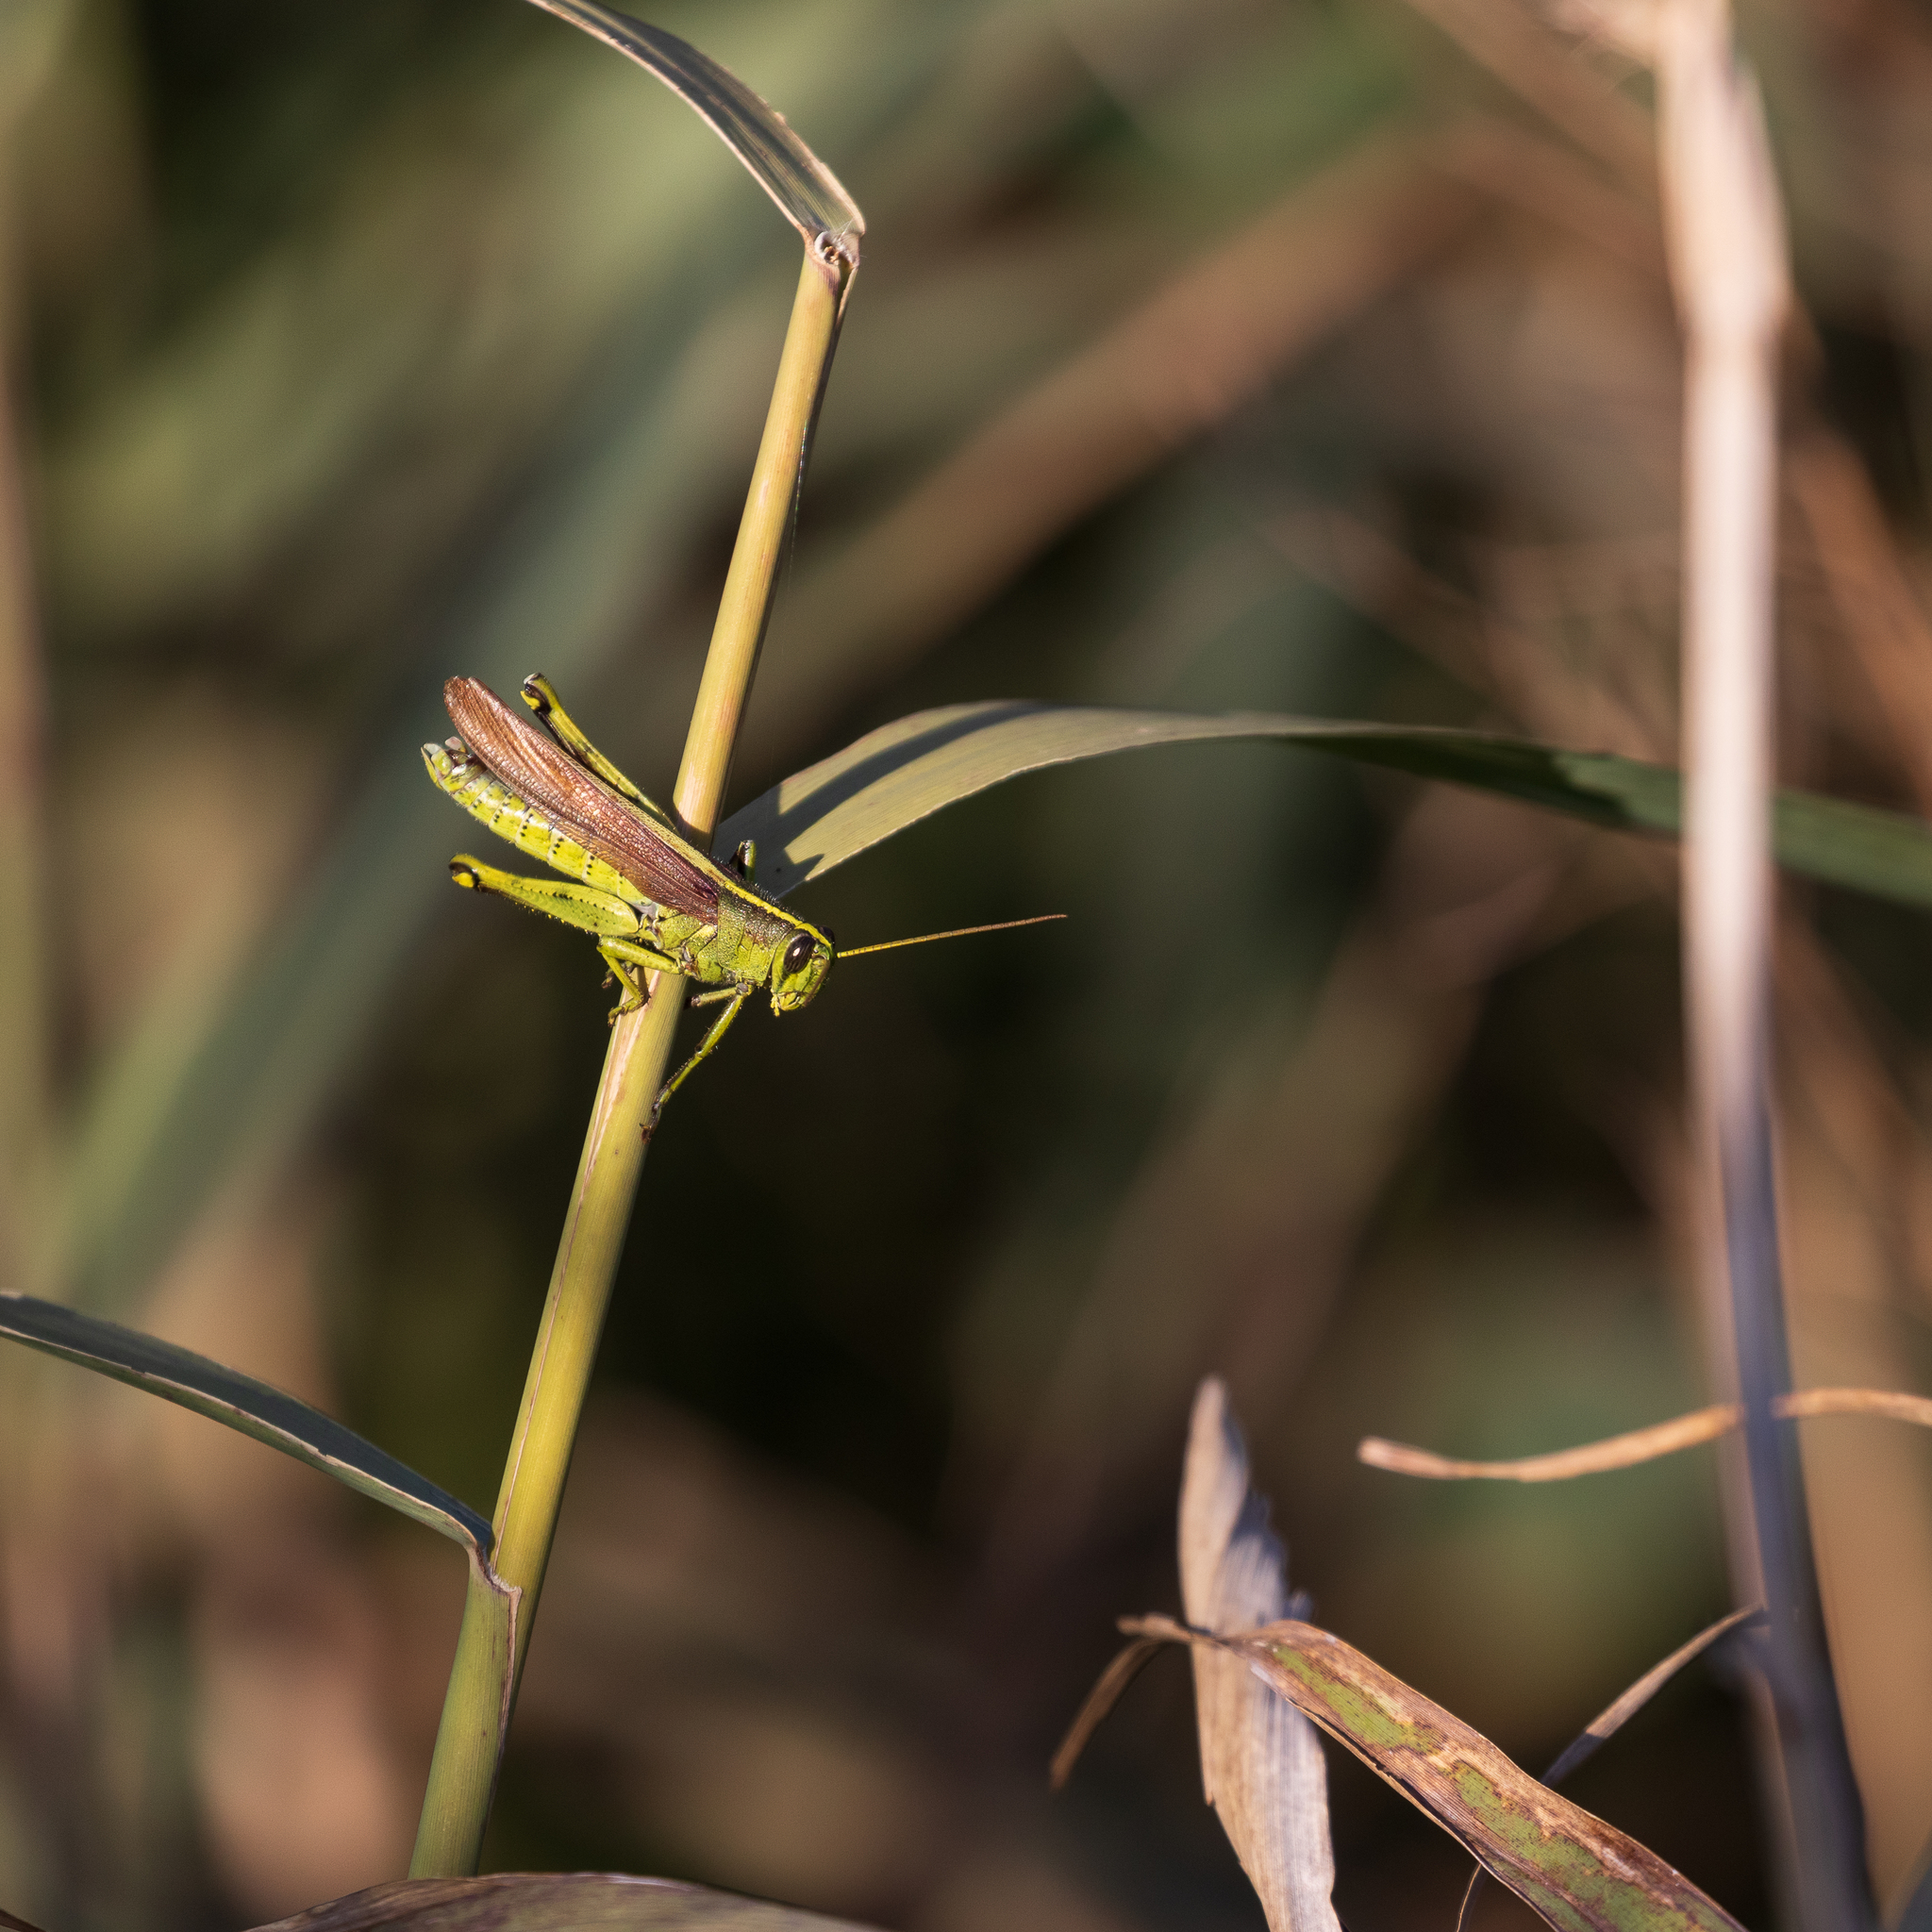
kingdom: Animalia
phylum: Arthropoda
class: Insecta
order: Orthoptera
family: Acrididae
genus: Schistocerca
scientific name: Schistocerca obscura
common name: Obscure bird grasshopper
